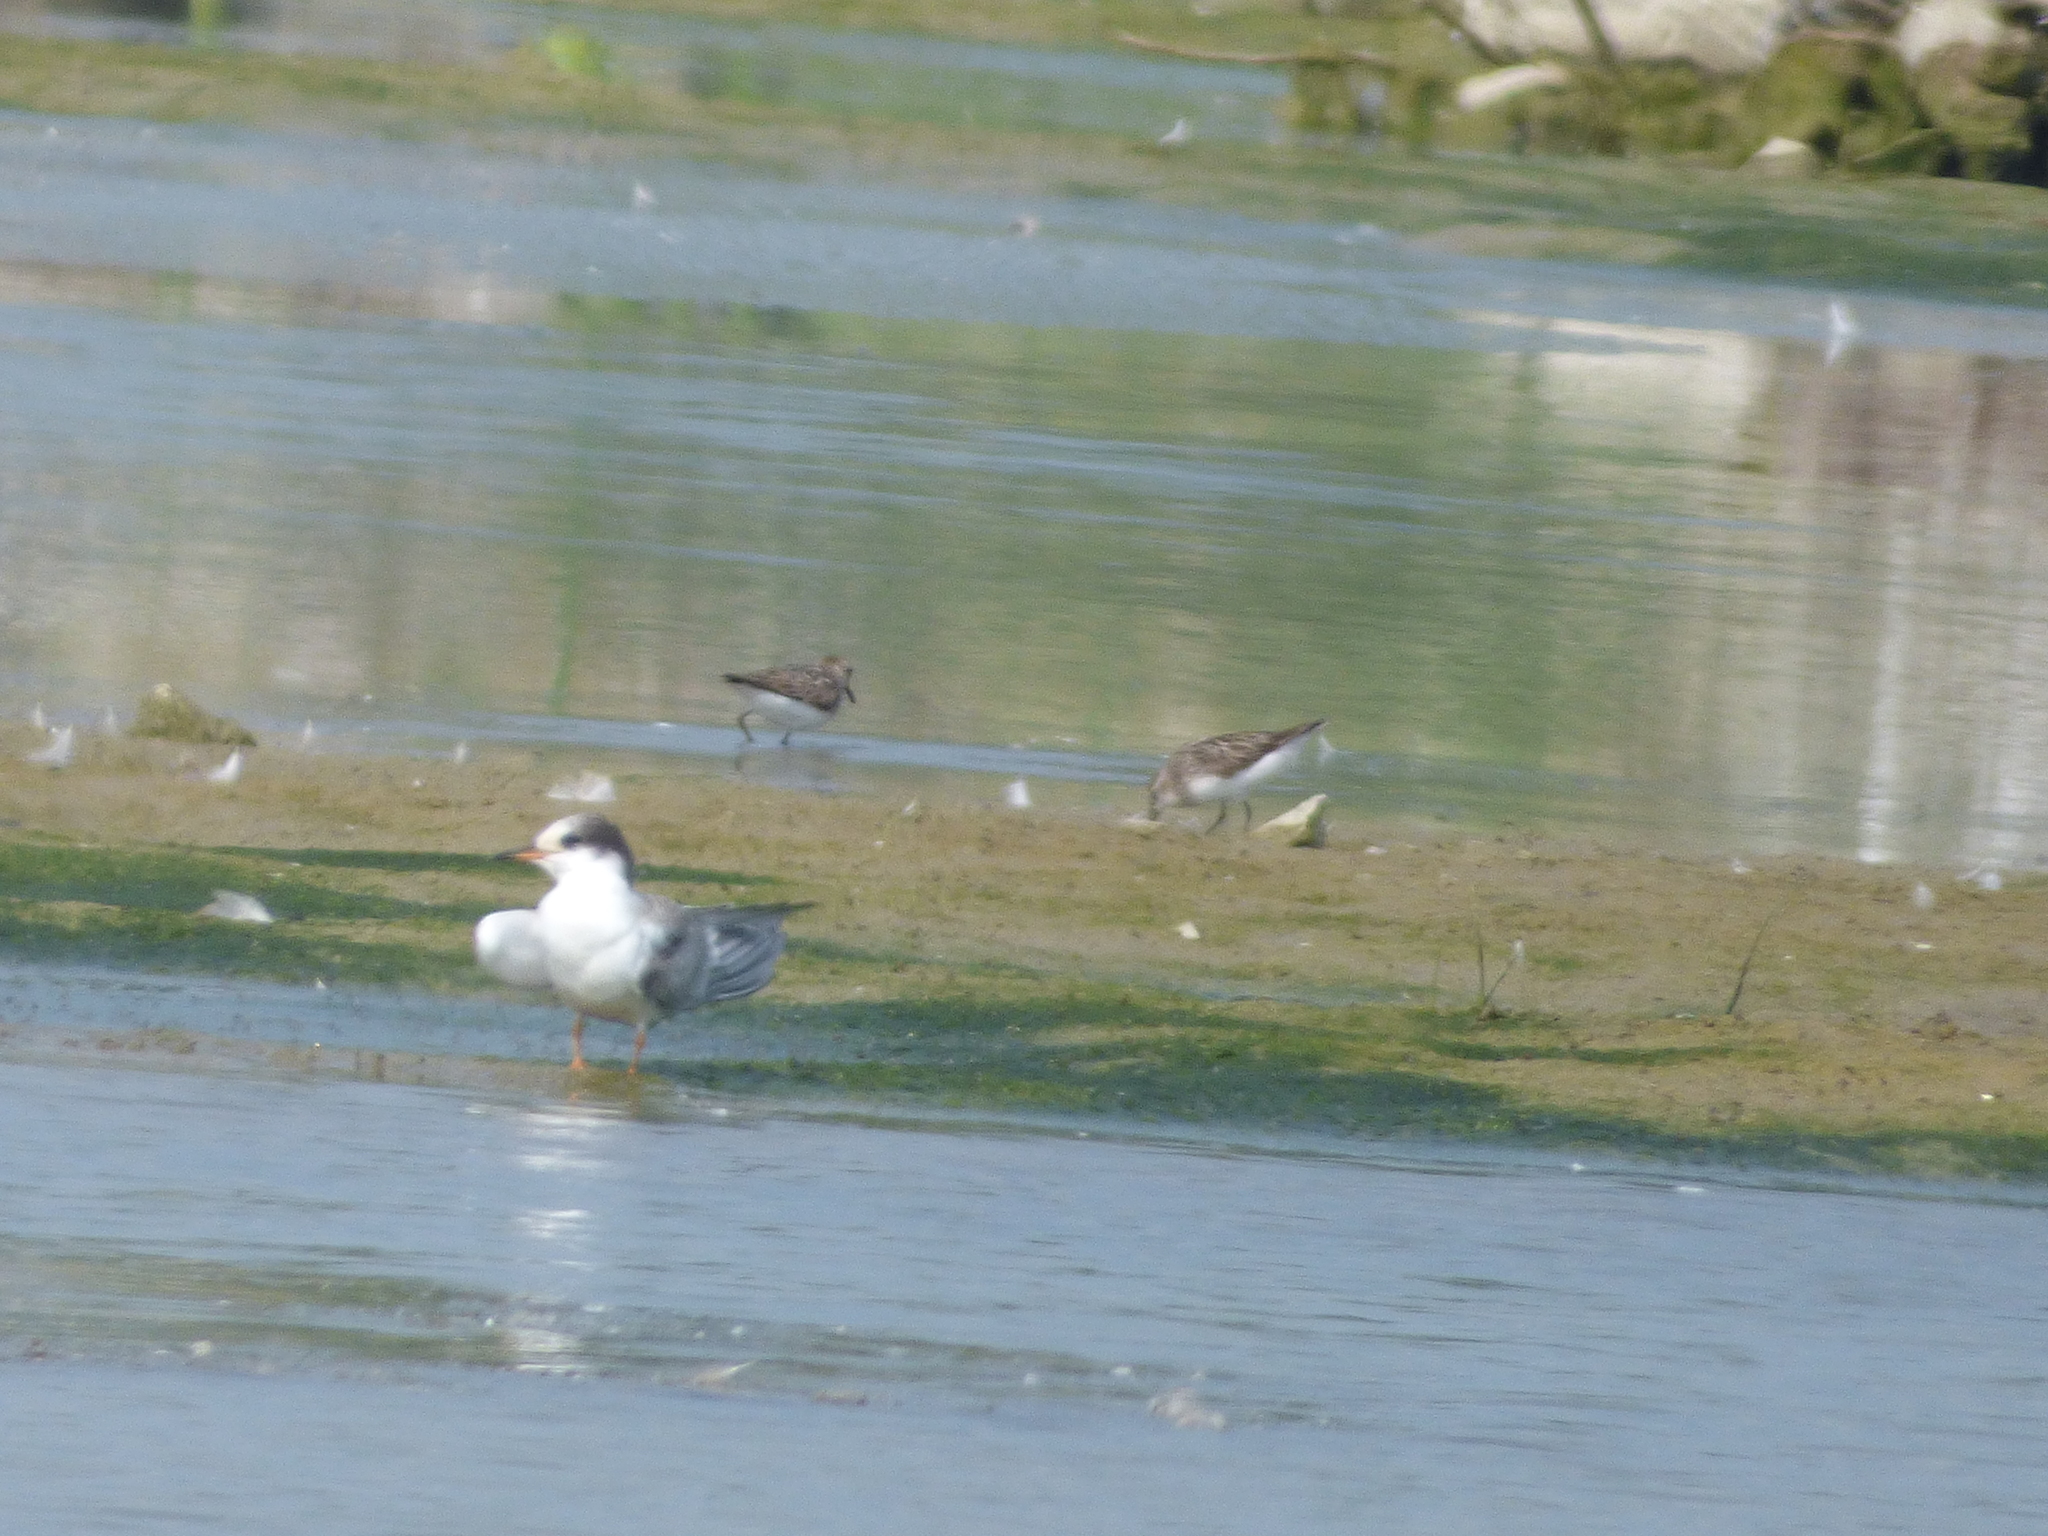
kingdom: Animalia
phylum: Chordata
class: Aves
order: Charadriiformes
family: Scolopacidae
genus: Calidris
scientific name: Calidris pusilla
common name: Semipalmated sandpiper
